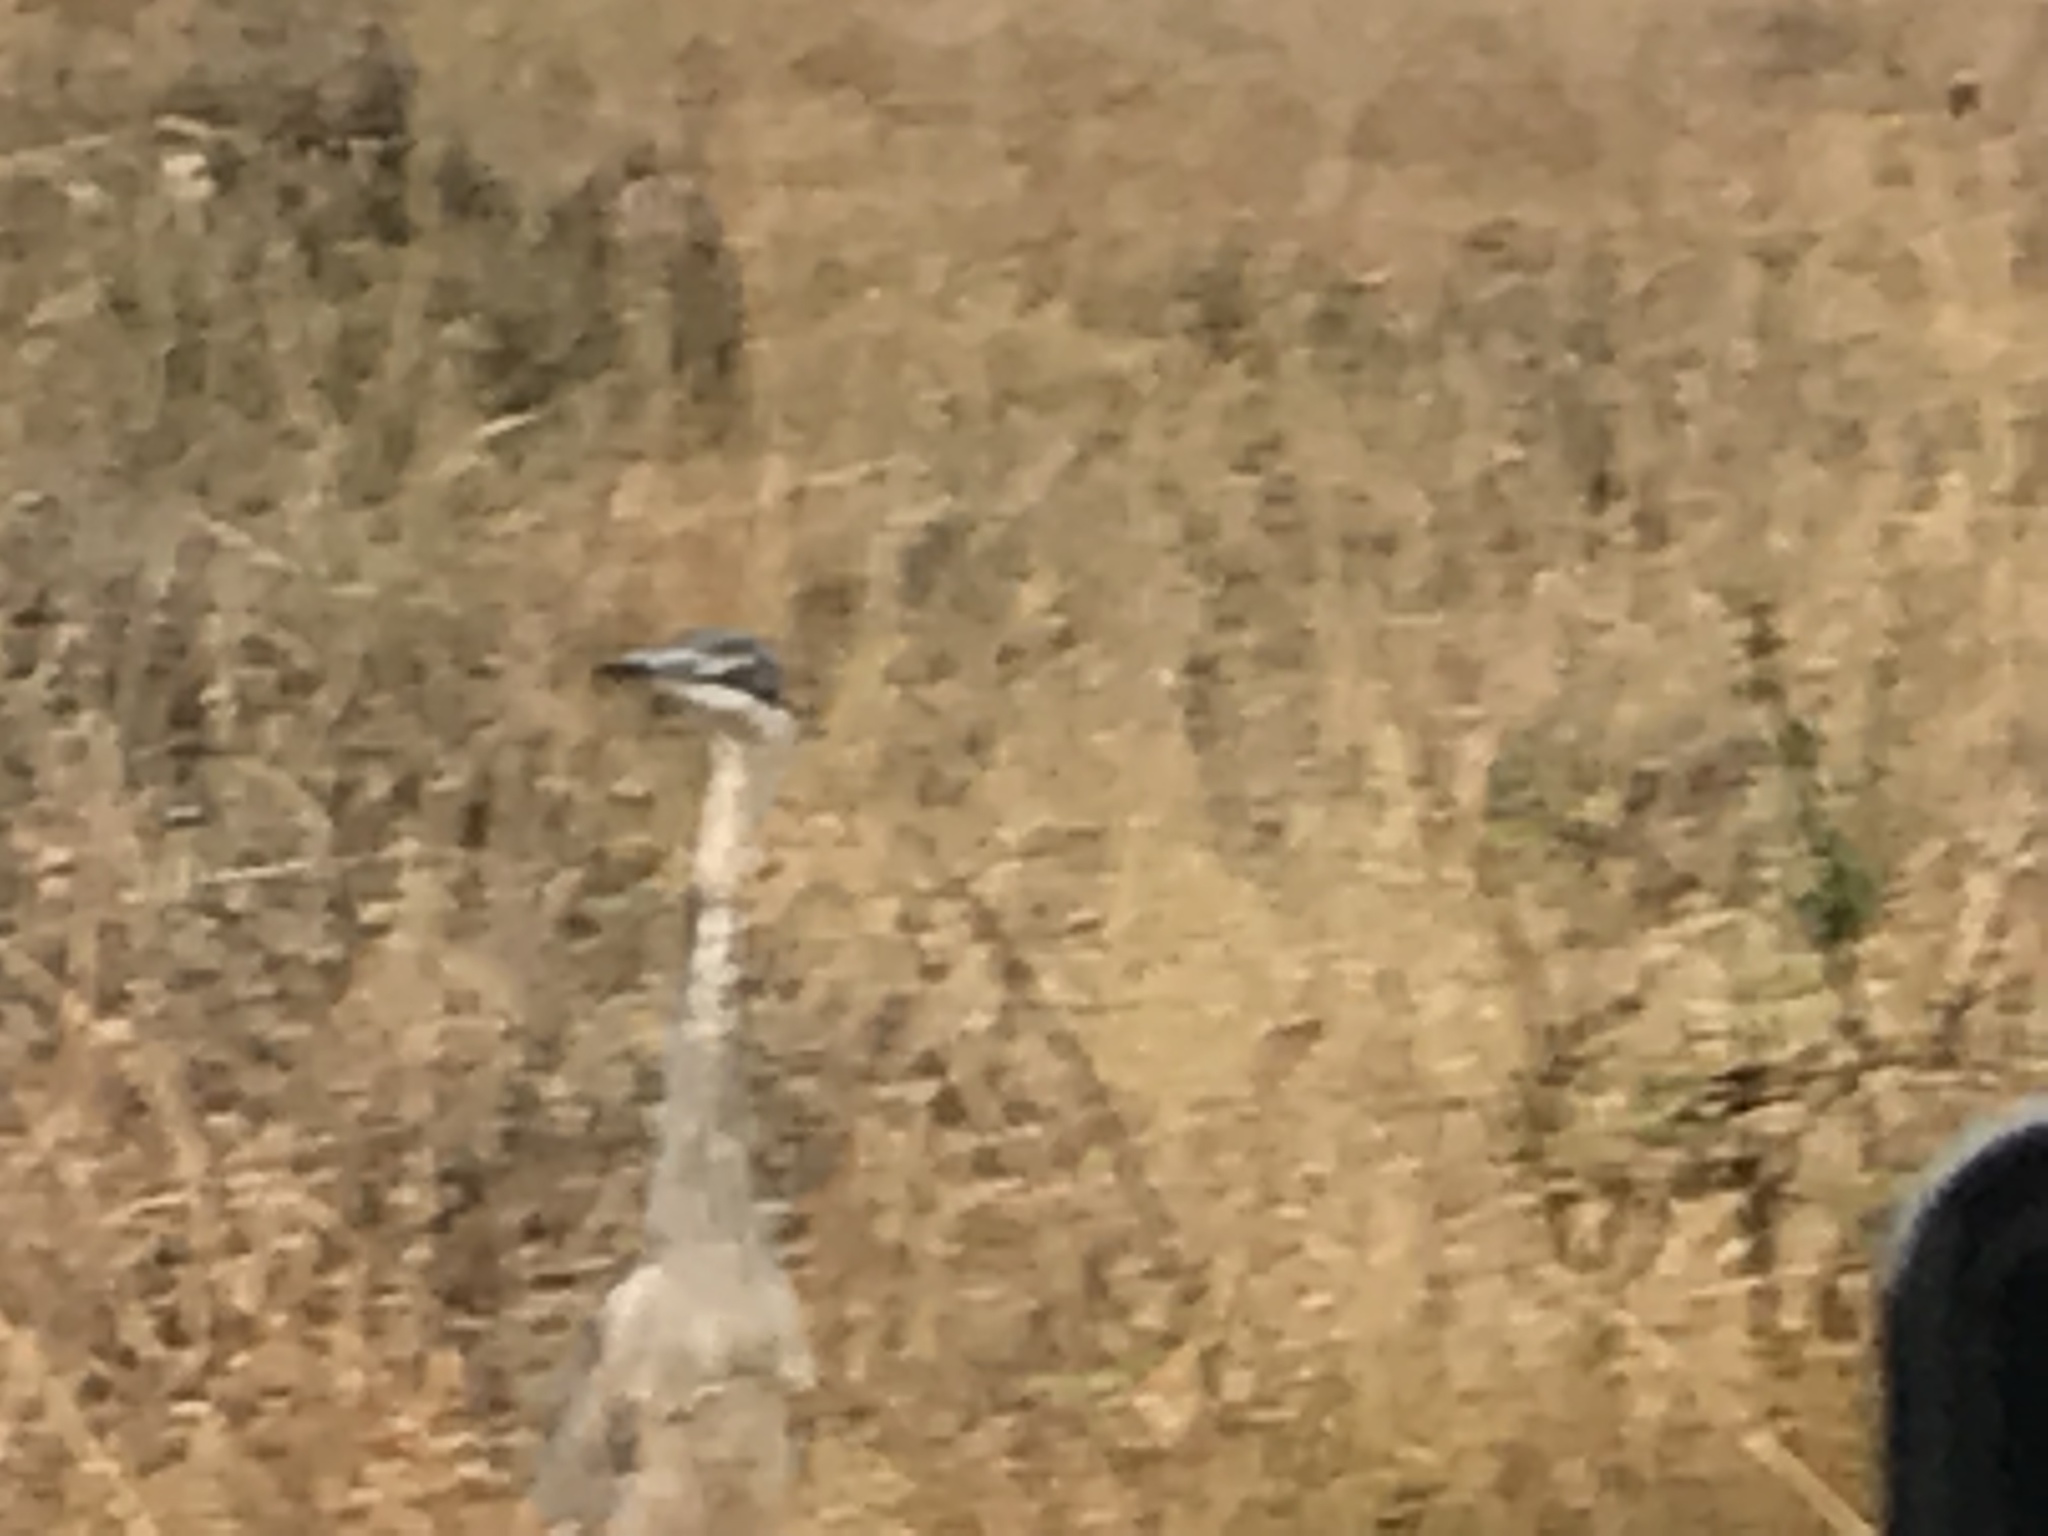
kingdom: Animalia
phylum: Chordata
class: Aves
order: Pelecaniformes
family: Ardeidae
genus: Ardea
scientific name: Ardea melanocephala
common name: Black-headed heron
